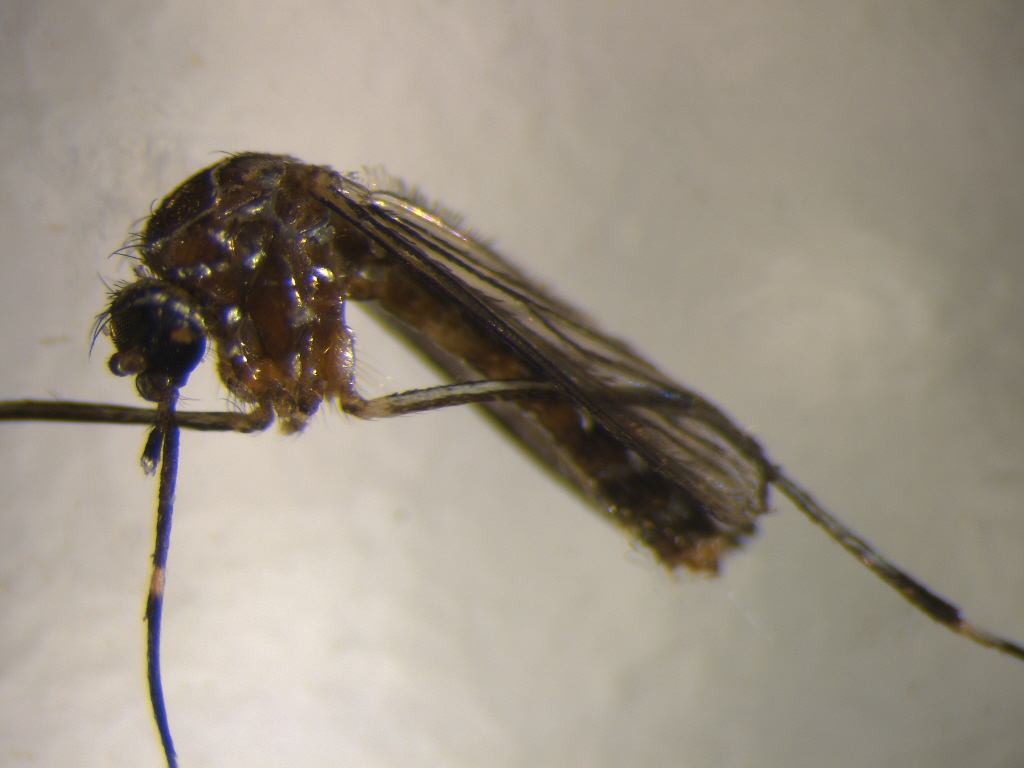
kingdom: Animalia
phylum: Arthropoda
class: Insecta
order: Diptera
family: Culicidae
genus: Aedes
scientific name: Aedes notoscriptus
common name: Australian backyard mosquito
